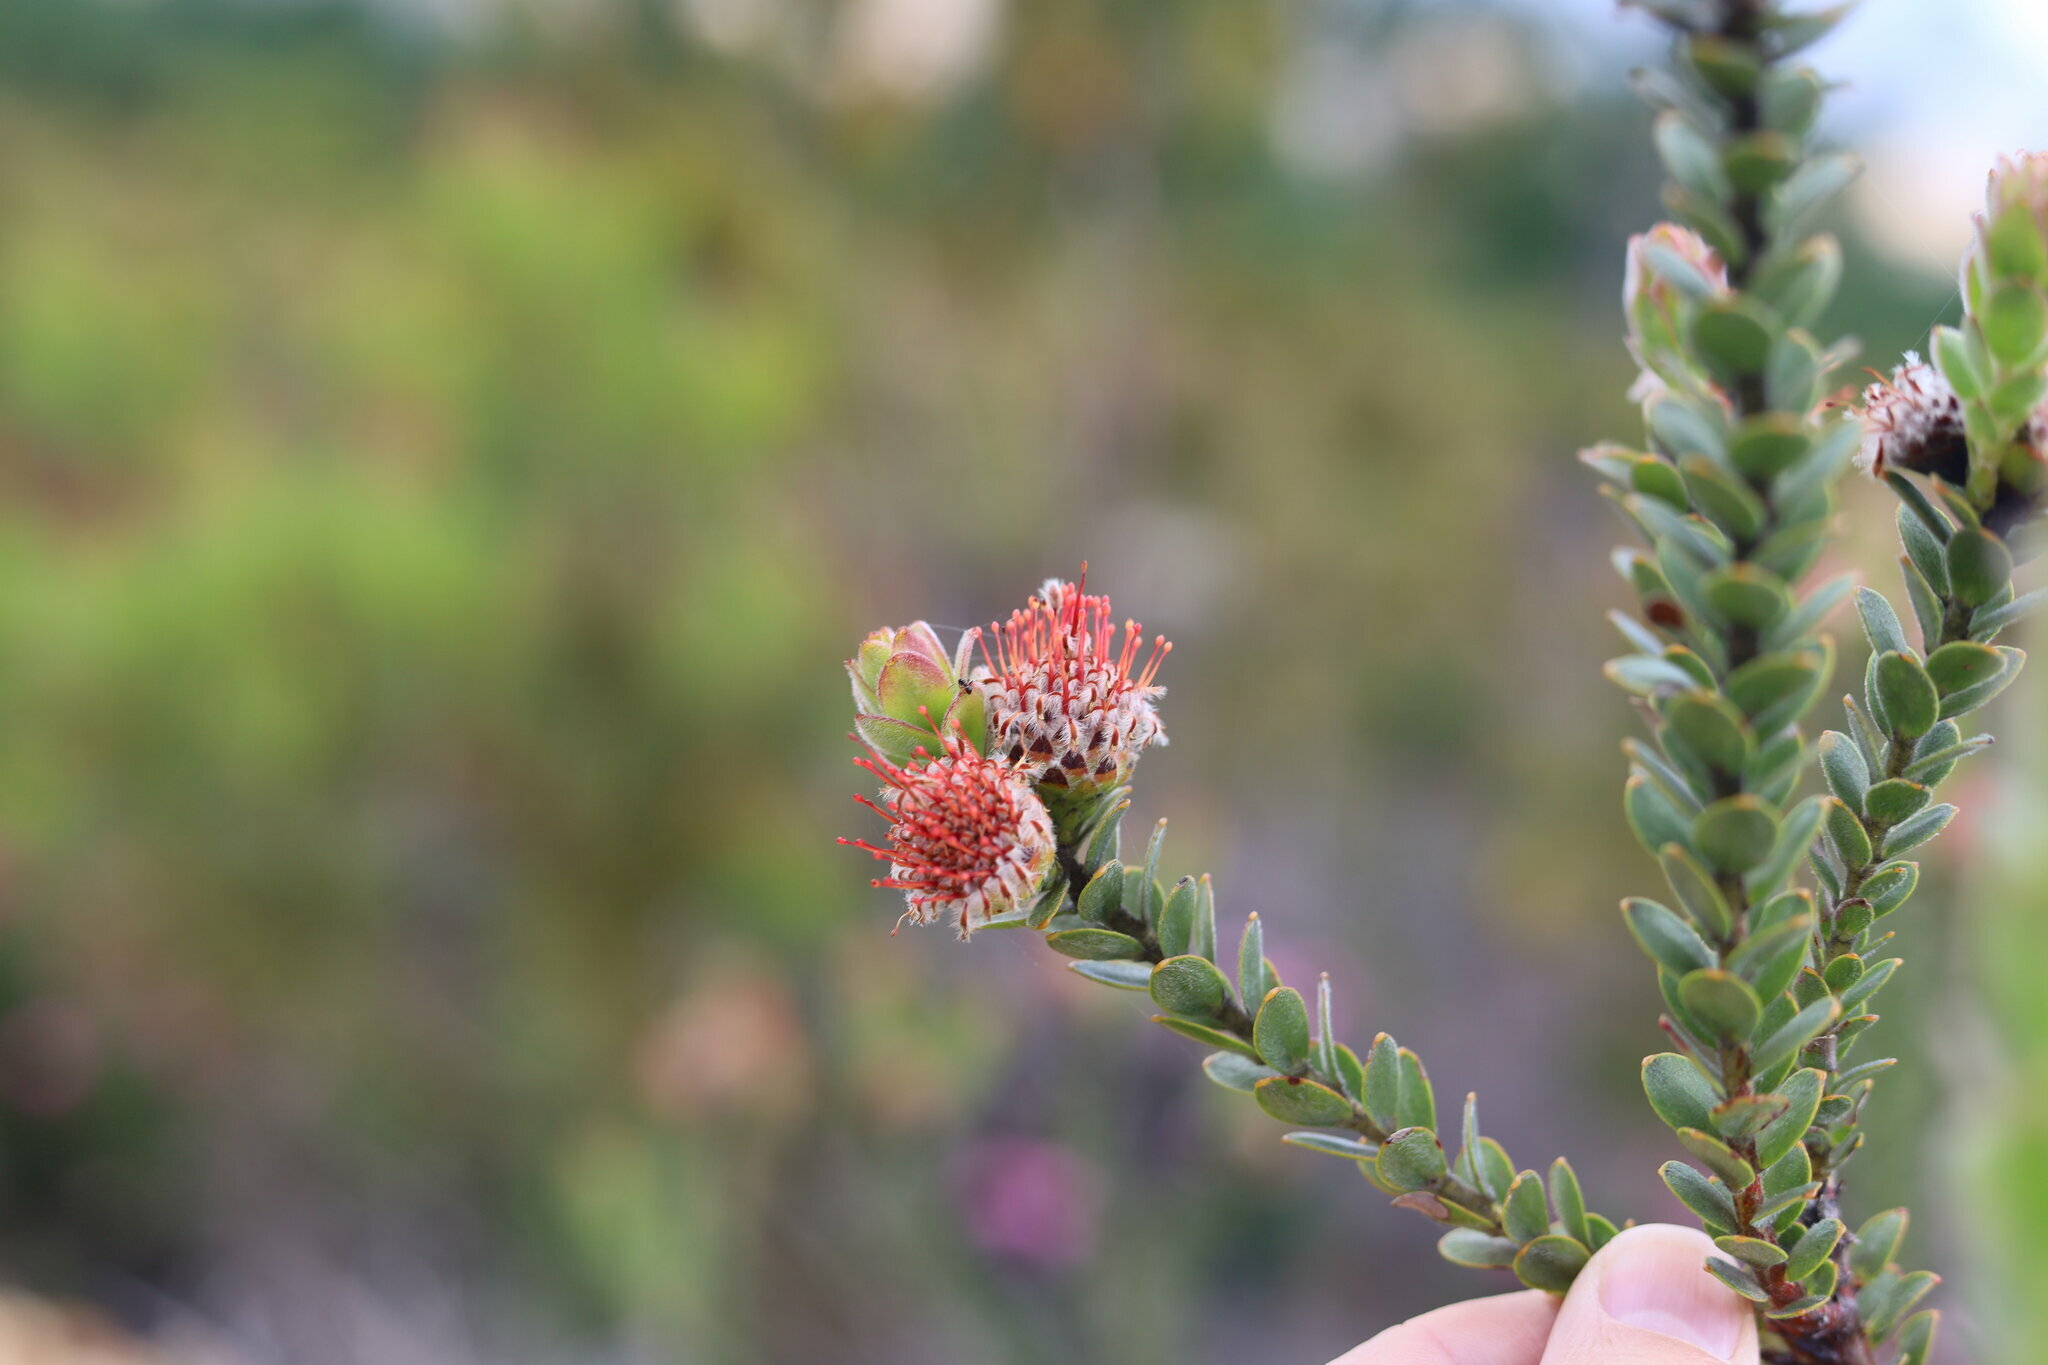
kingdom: Plantae
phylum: Tracheophyta
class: Magnoliopsida
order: Proteales
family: Proteaceae
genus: Leucospermum
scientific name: Leucospermum truncatulum
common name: Oval-leaf pincushion
